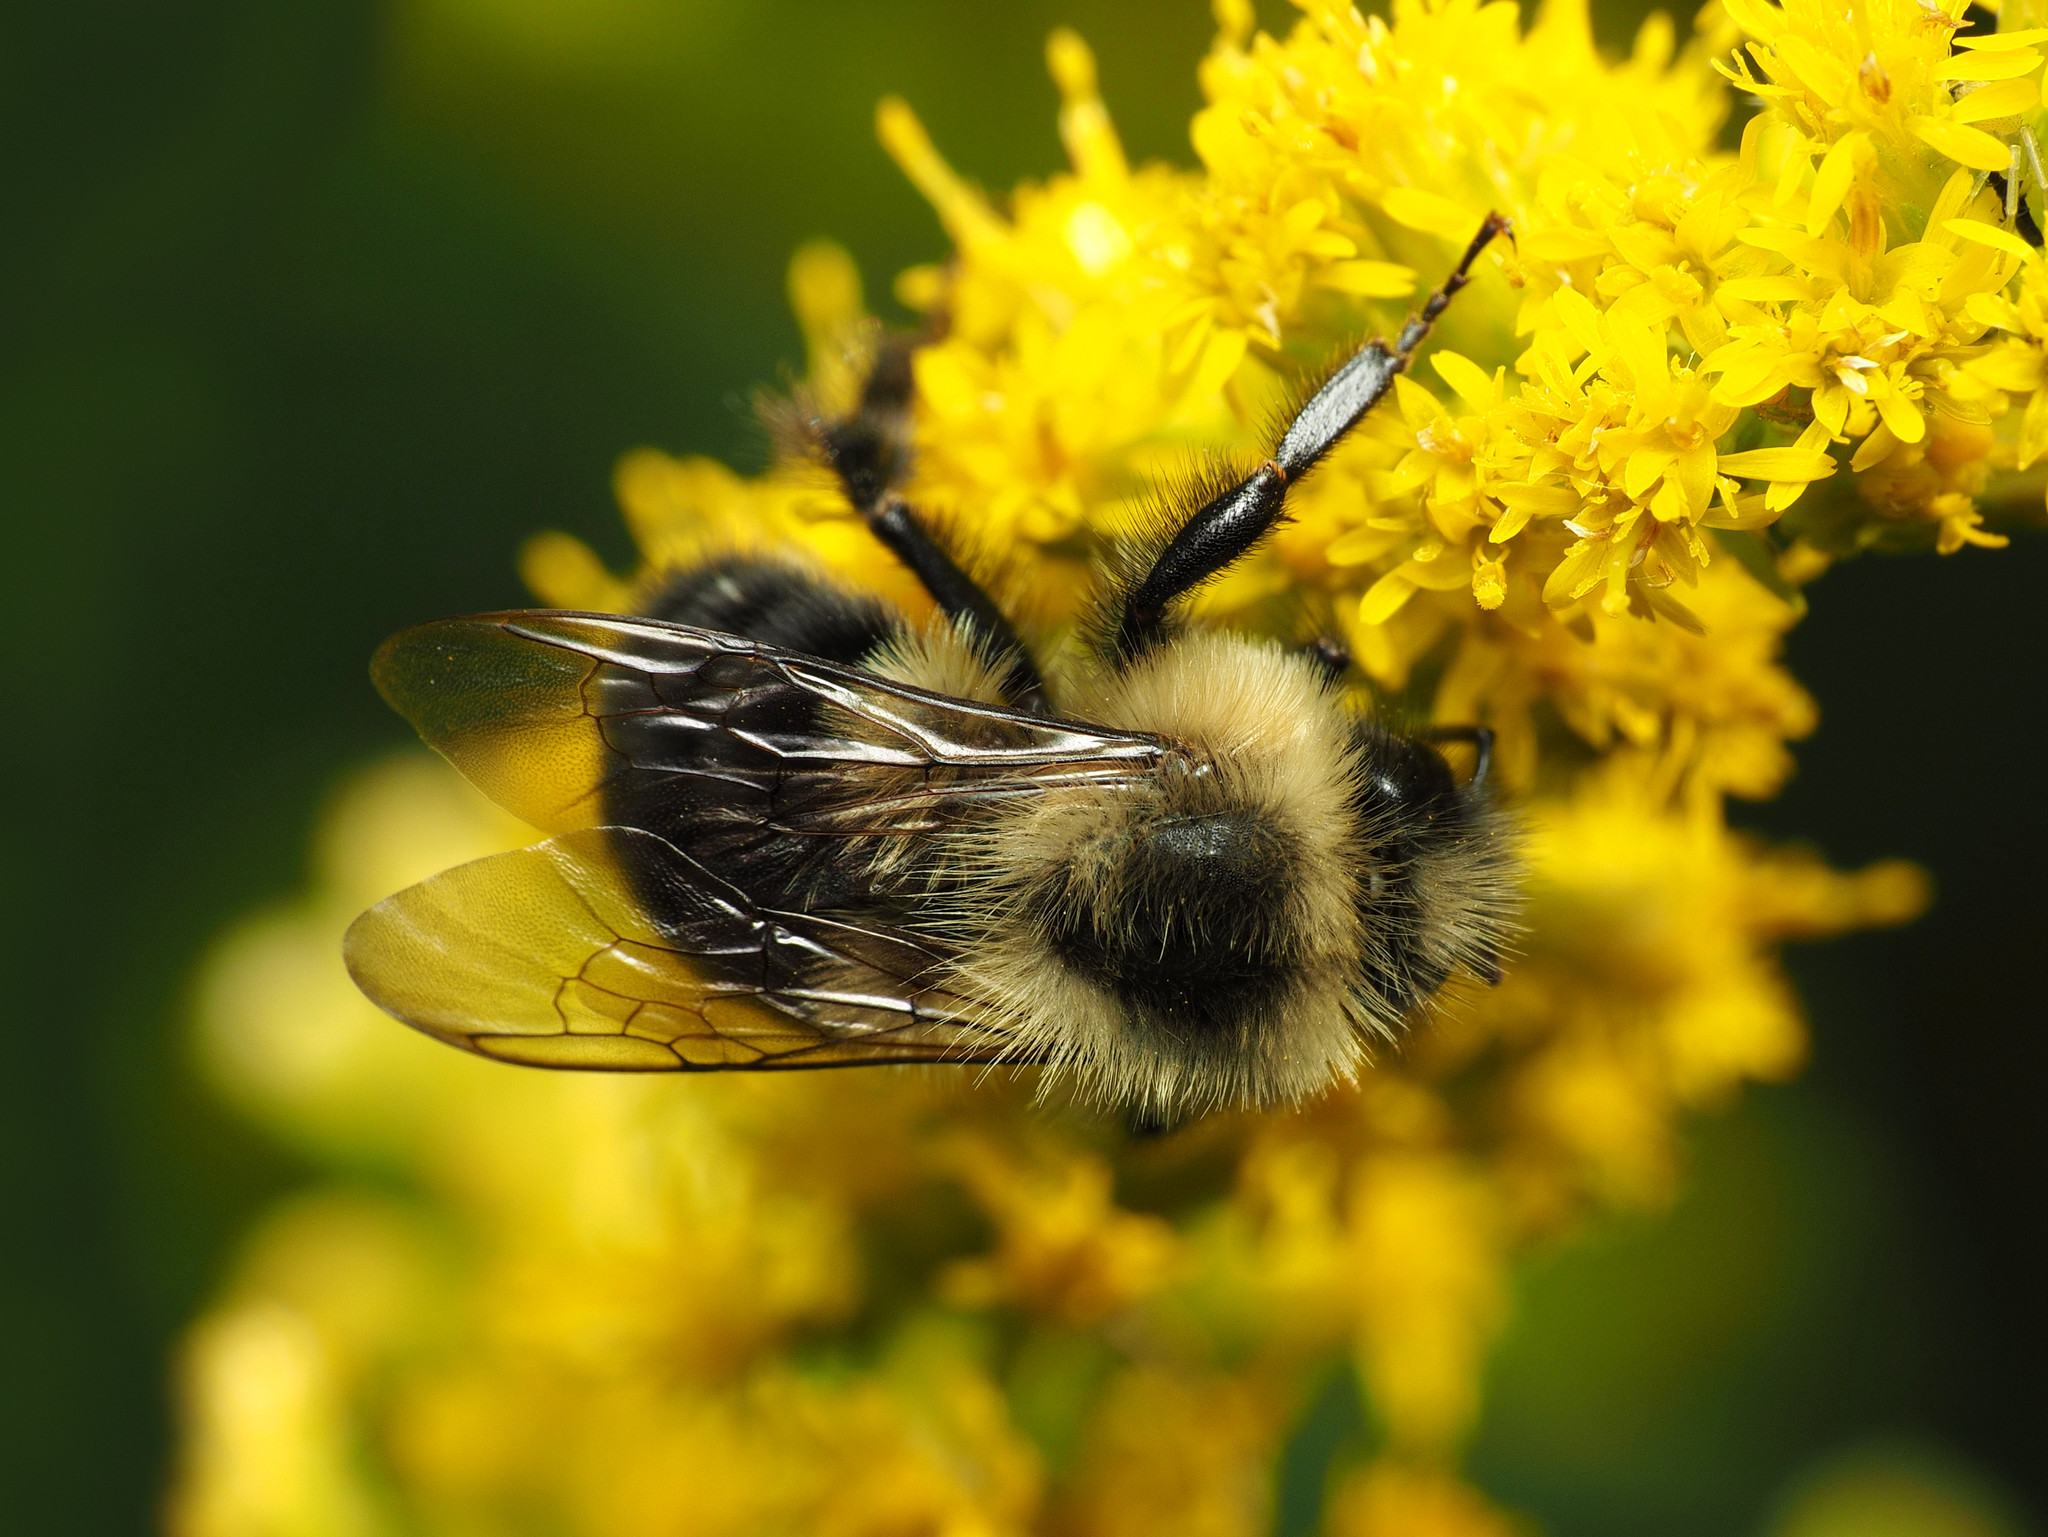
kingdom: Animalia
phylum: Arthropoda
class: Insecta
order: Hymenoptera
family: Apidae
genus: Bombus
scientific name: Bombus impatiens
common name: Common eastern bumble bee
